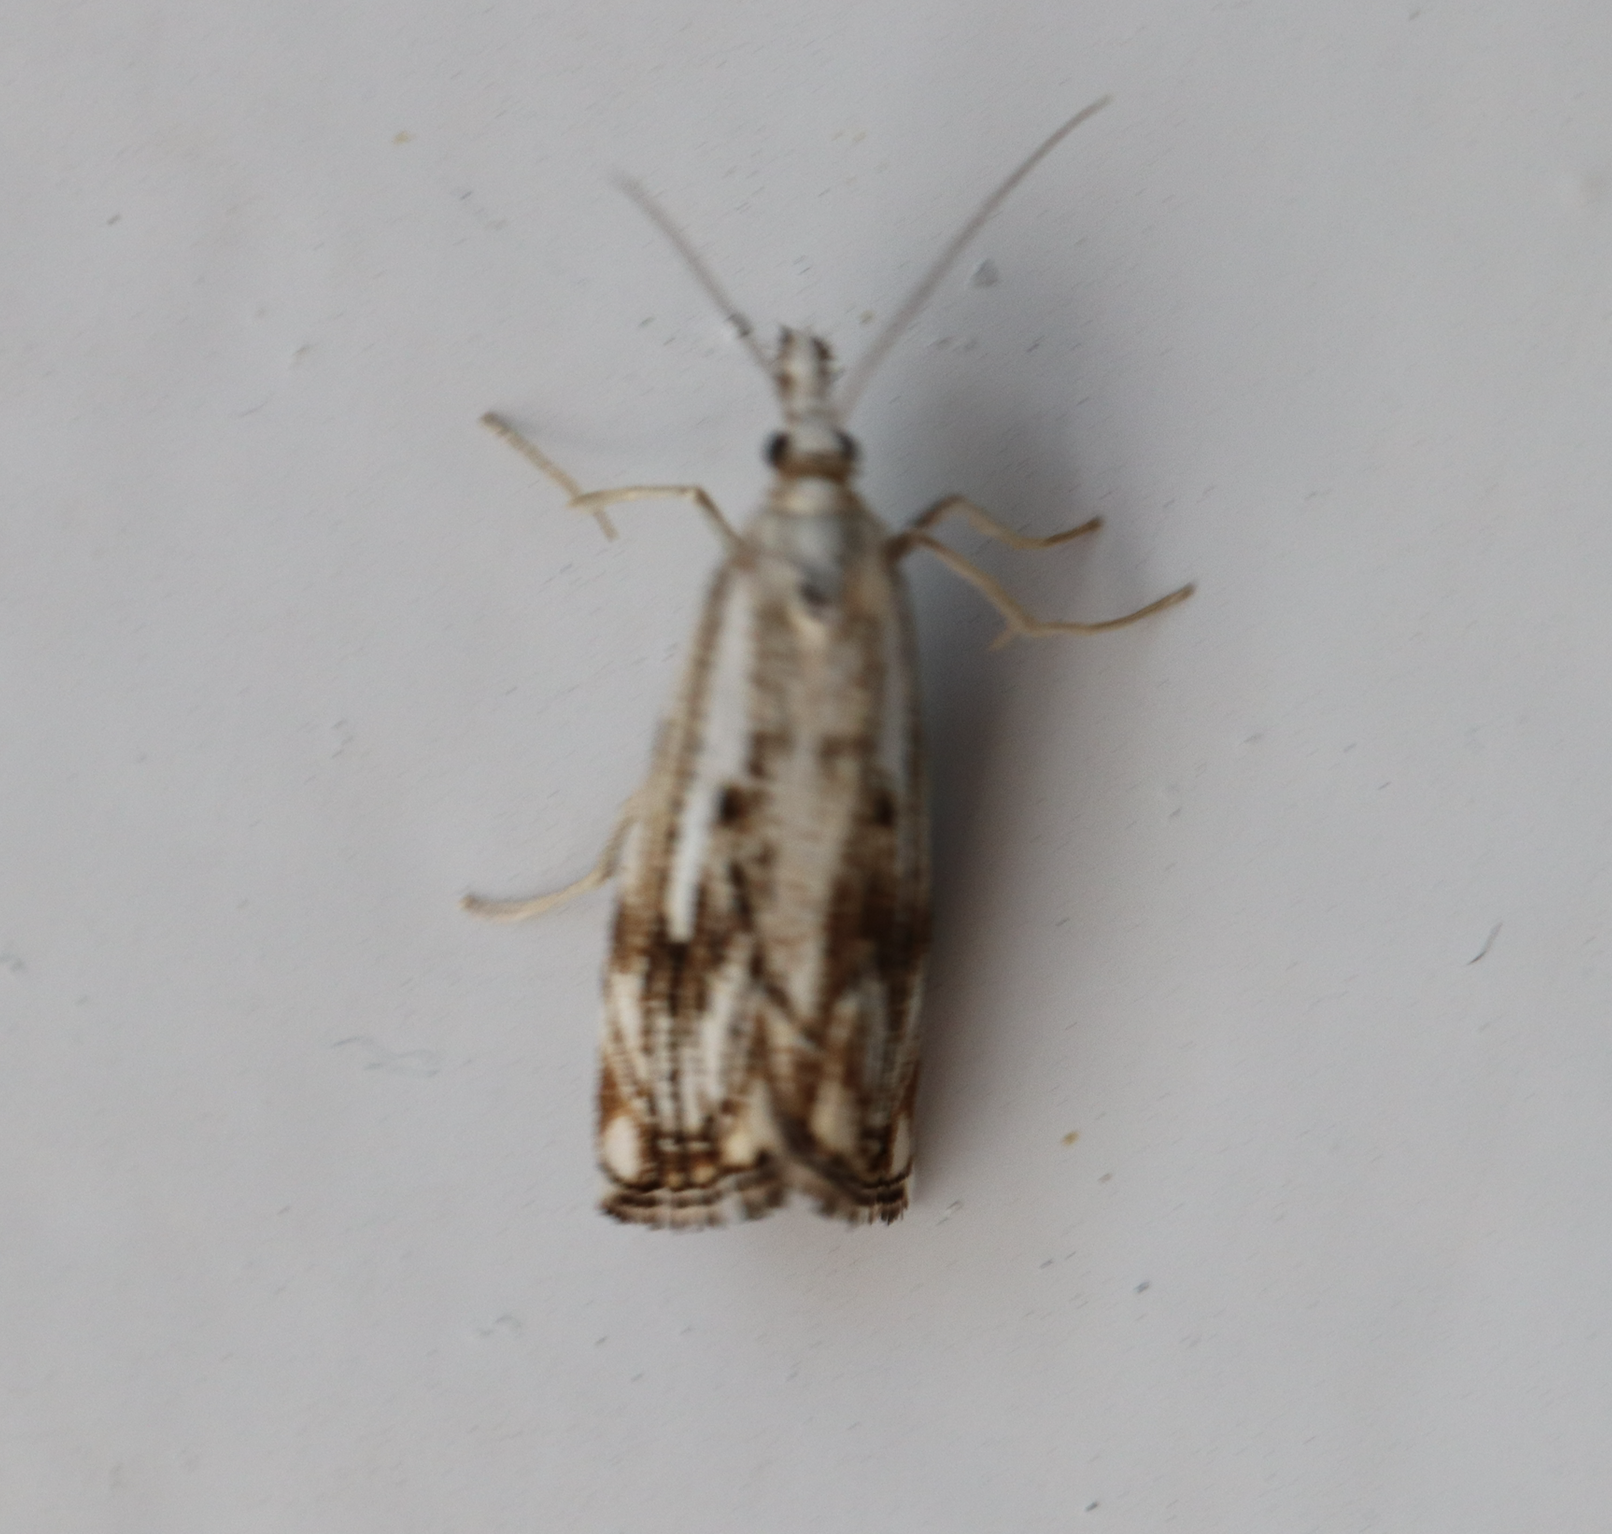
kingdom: Animalia
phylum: Arthropoda
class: Insecta
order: Lepidoptera
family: Crambidae
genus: Catoptria
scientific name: Catoptria falsella
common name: Chequered grass-veneer
